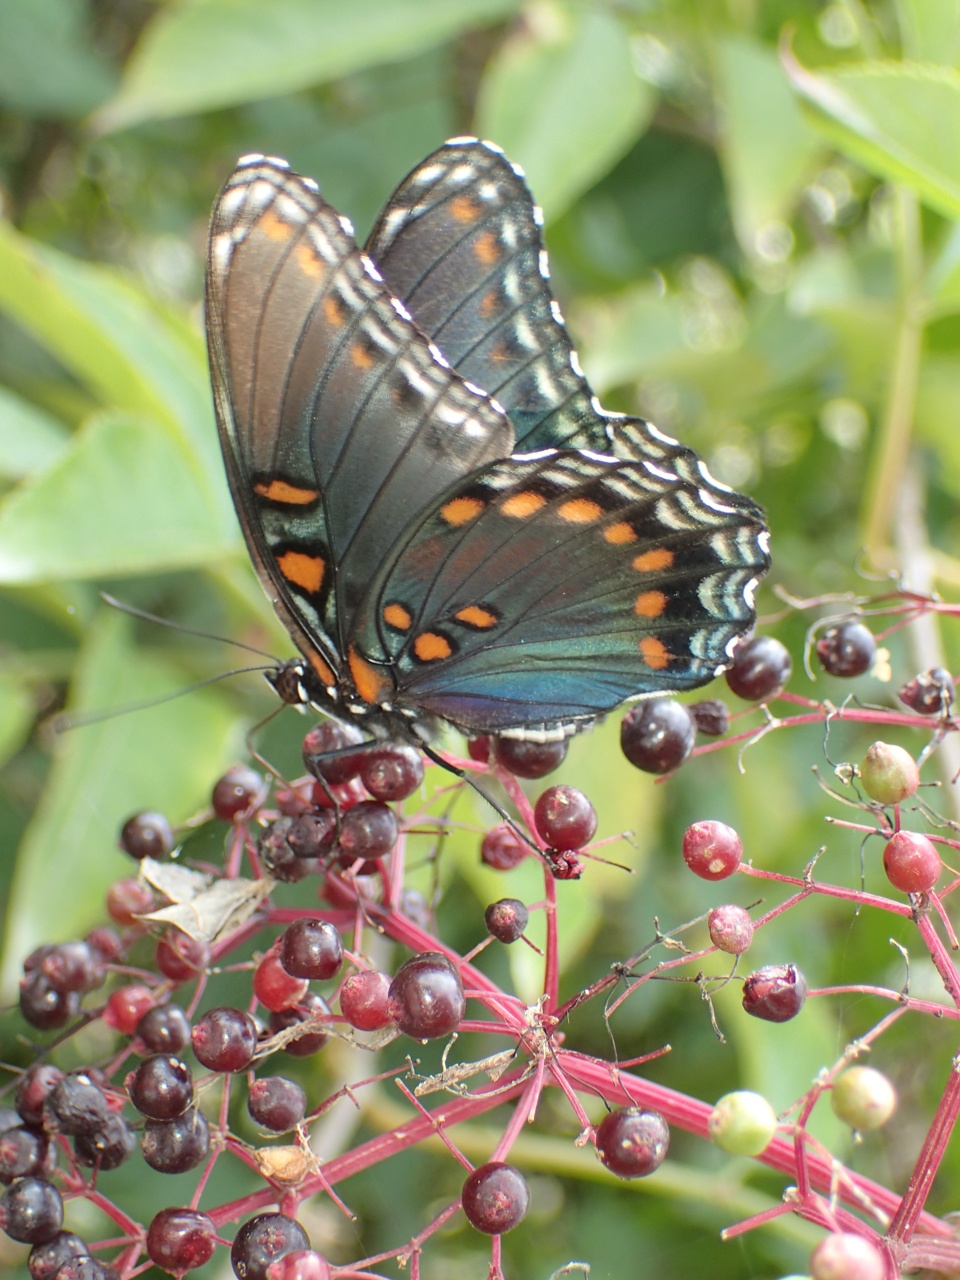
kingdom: Animalia
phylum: Arthropoda
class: Insecta
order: Lepidoptera
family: Nymphalidae
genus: Limenitis
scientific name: Limenitis astyanax
